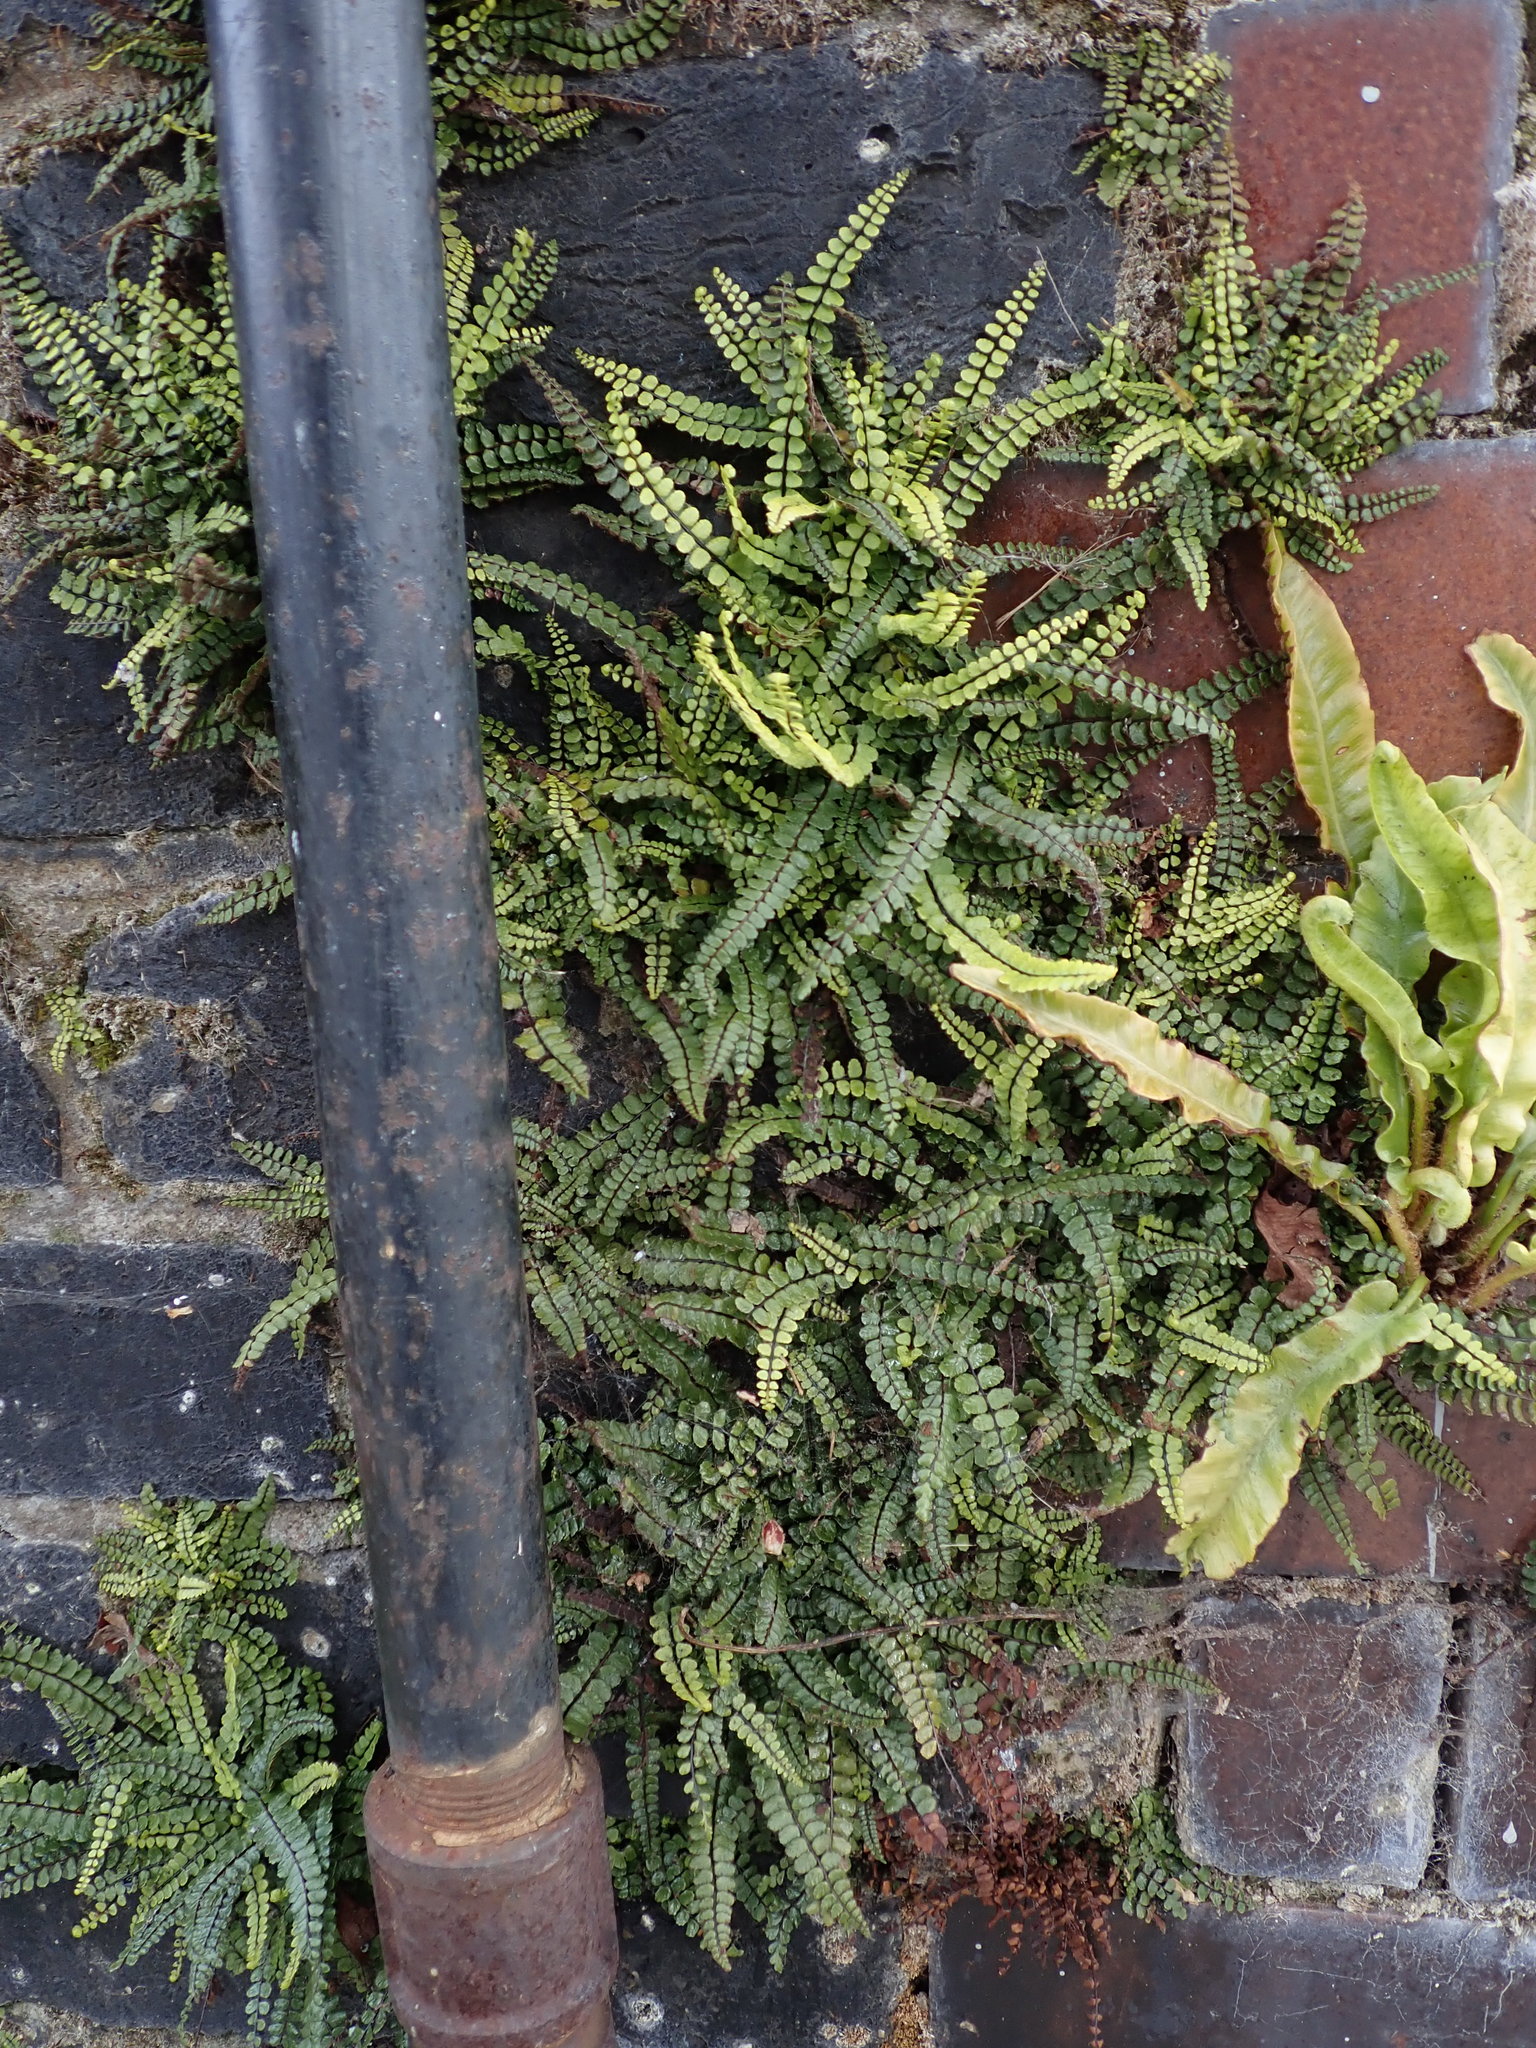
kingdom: Plantae
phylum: Tracheophyta
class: Polypodiopsida
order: Polypodiales
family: Aspleniaceae
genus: Asplenium
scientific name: Asplenium trichomanes
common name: Maidenhair spleenwort
